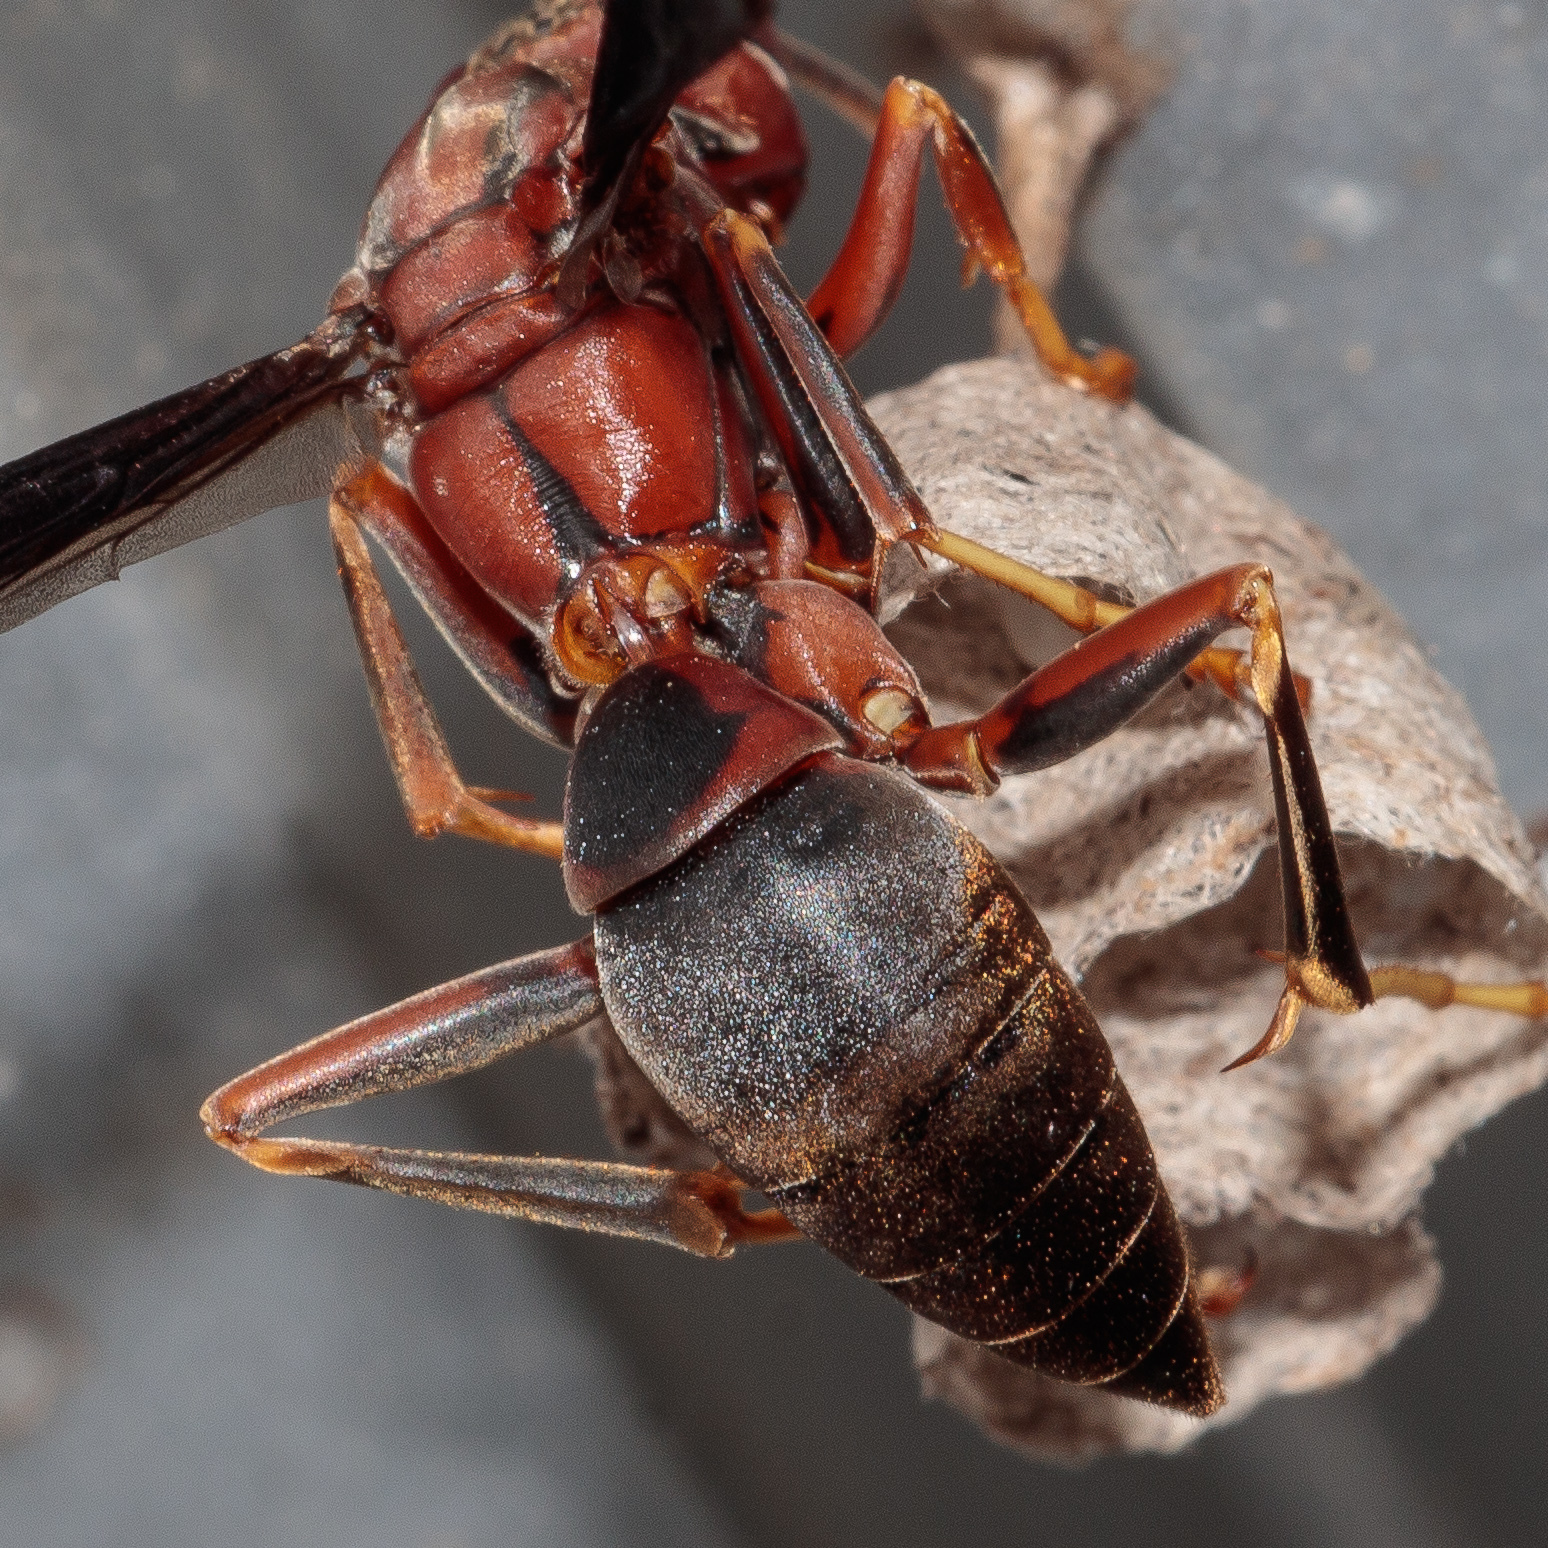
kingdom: Animalia
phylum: Arthropoda
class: Insecta
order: Hymenoptera
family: Eumenidae
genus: Polistes
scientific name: Polistes metricus
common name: Metric paper wasp
